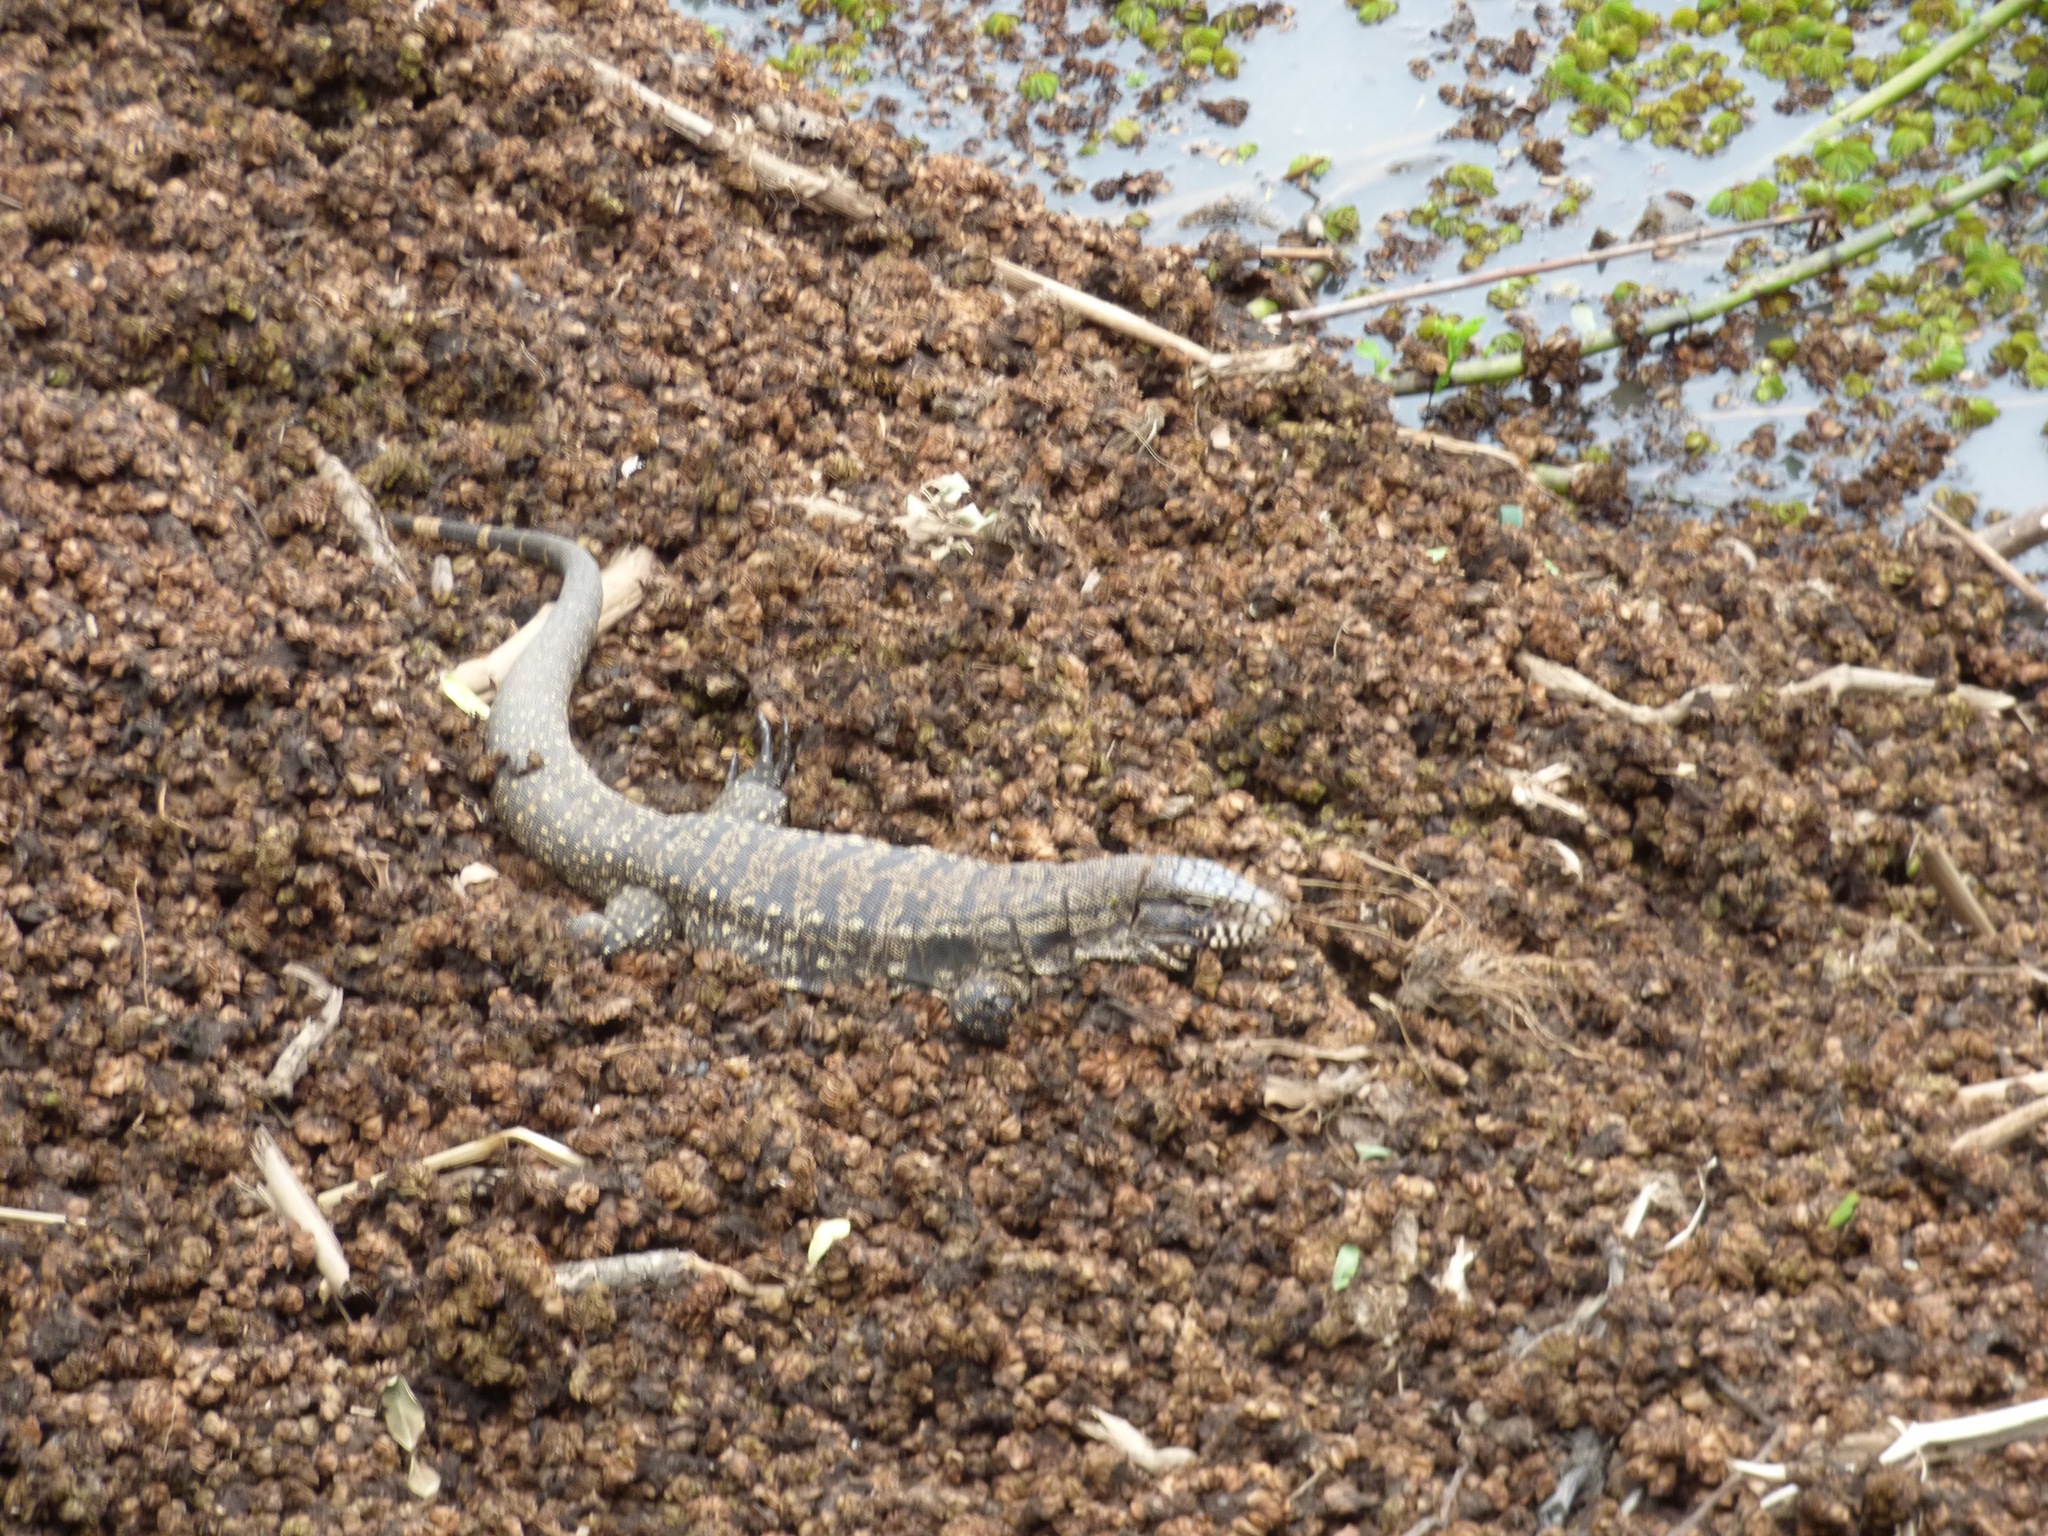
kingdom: Animalia
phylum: Chordata
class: Squamata
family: Teiidae
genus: Salvator
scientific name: Salvator merianae
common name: Argentine black and white tegu
